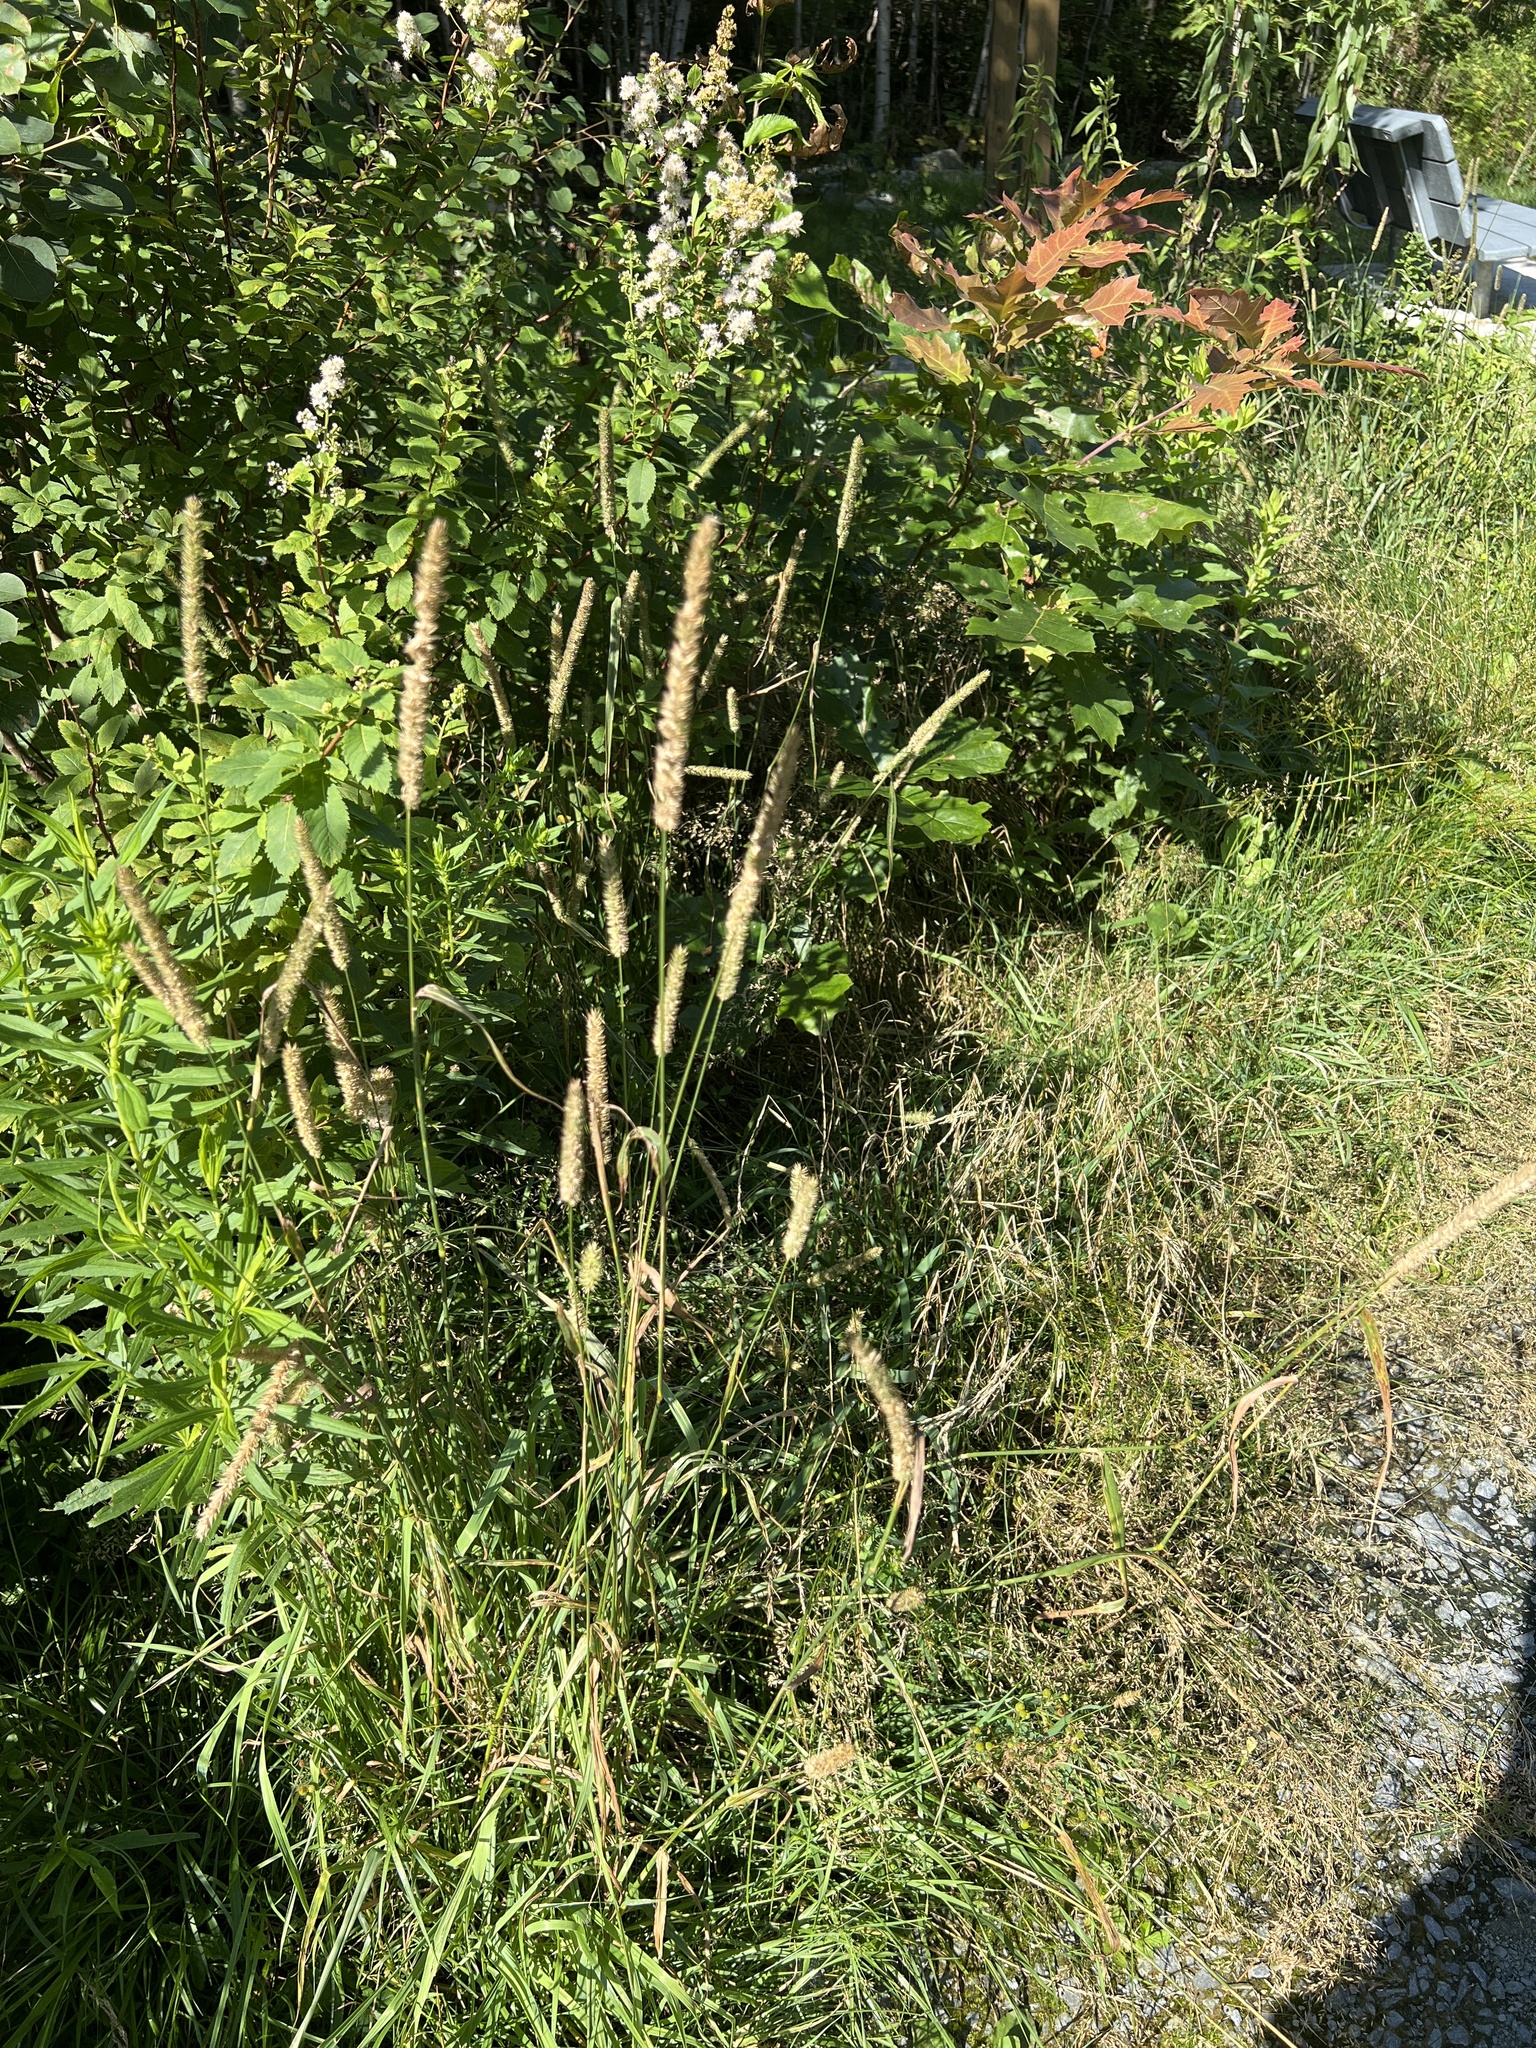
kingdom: Plantae
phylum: Tracheophyta
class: Liliopsida
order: Poales
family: Poaceae
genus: Phleum
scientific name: Phleum pratense
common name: Timothy grass
